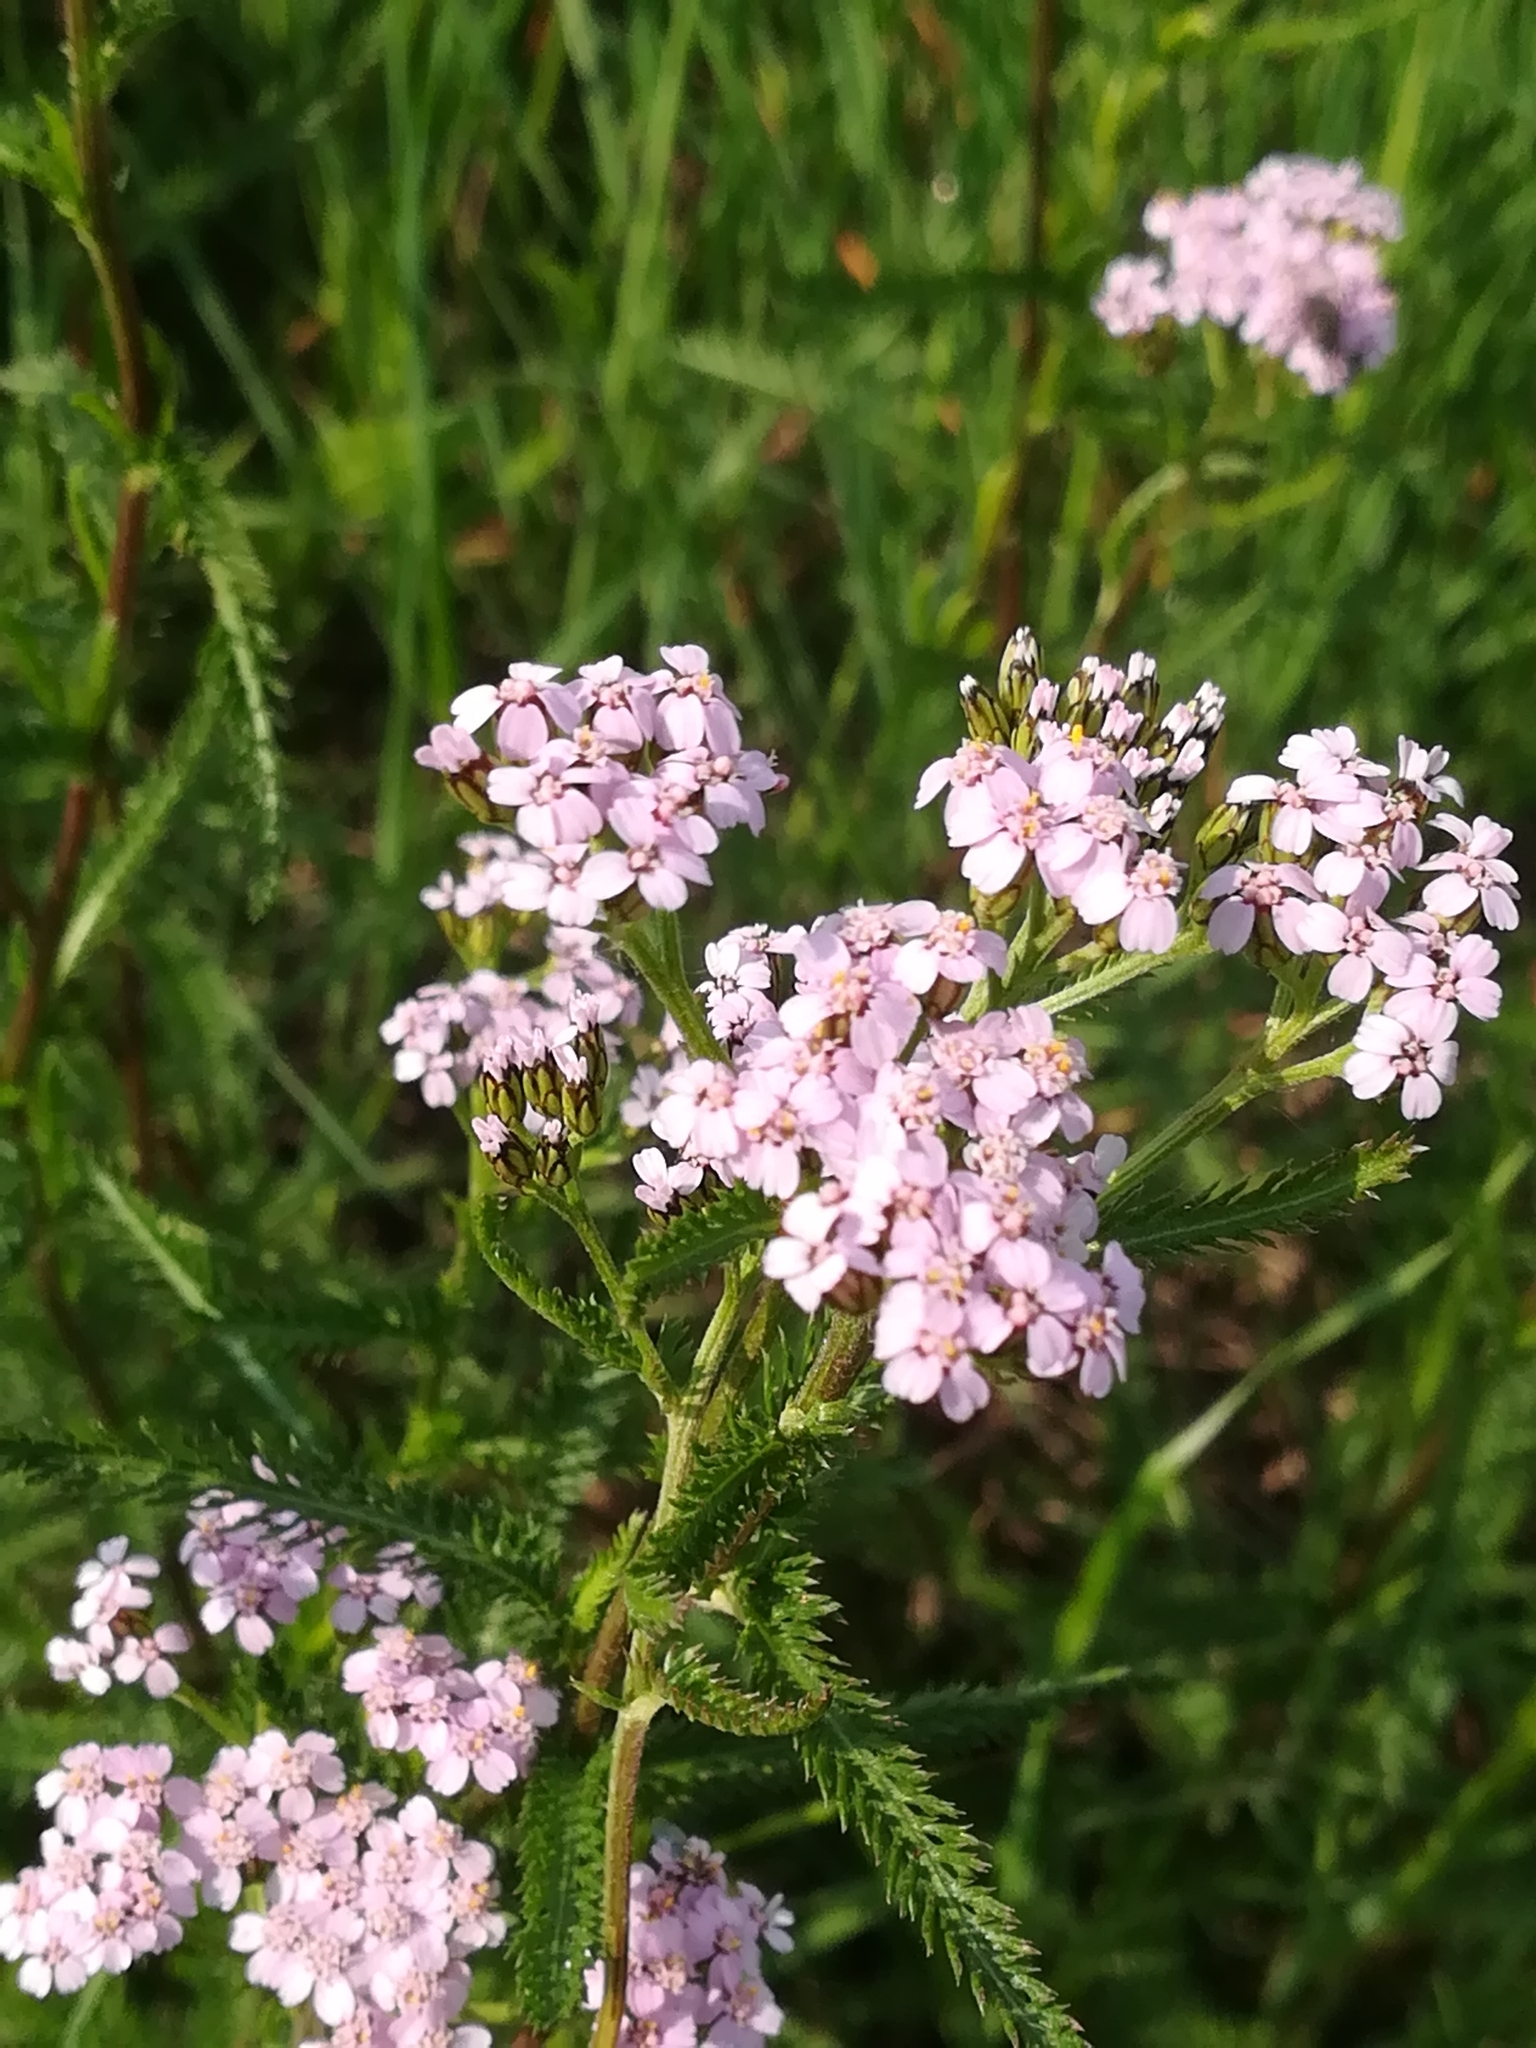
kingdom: Plantae
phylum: Tracheophyta
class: Magnoliopsida
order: Asterales
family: Asteraceae
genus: Achillea
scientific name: Achillea roseoalba
